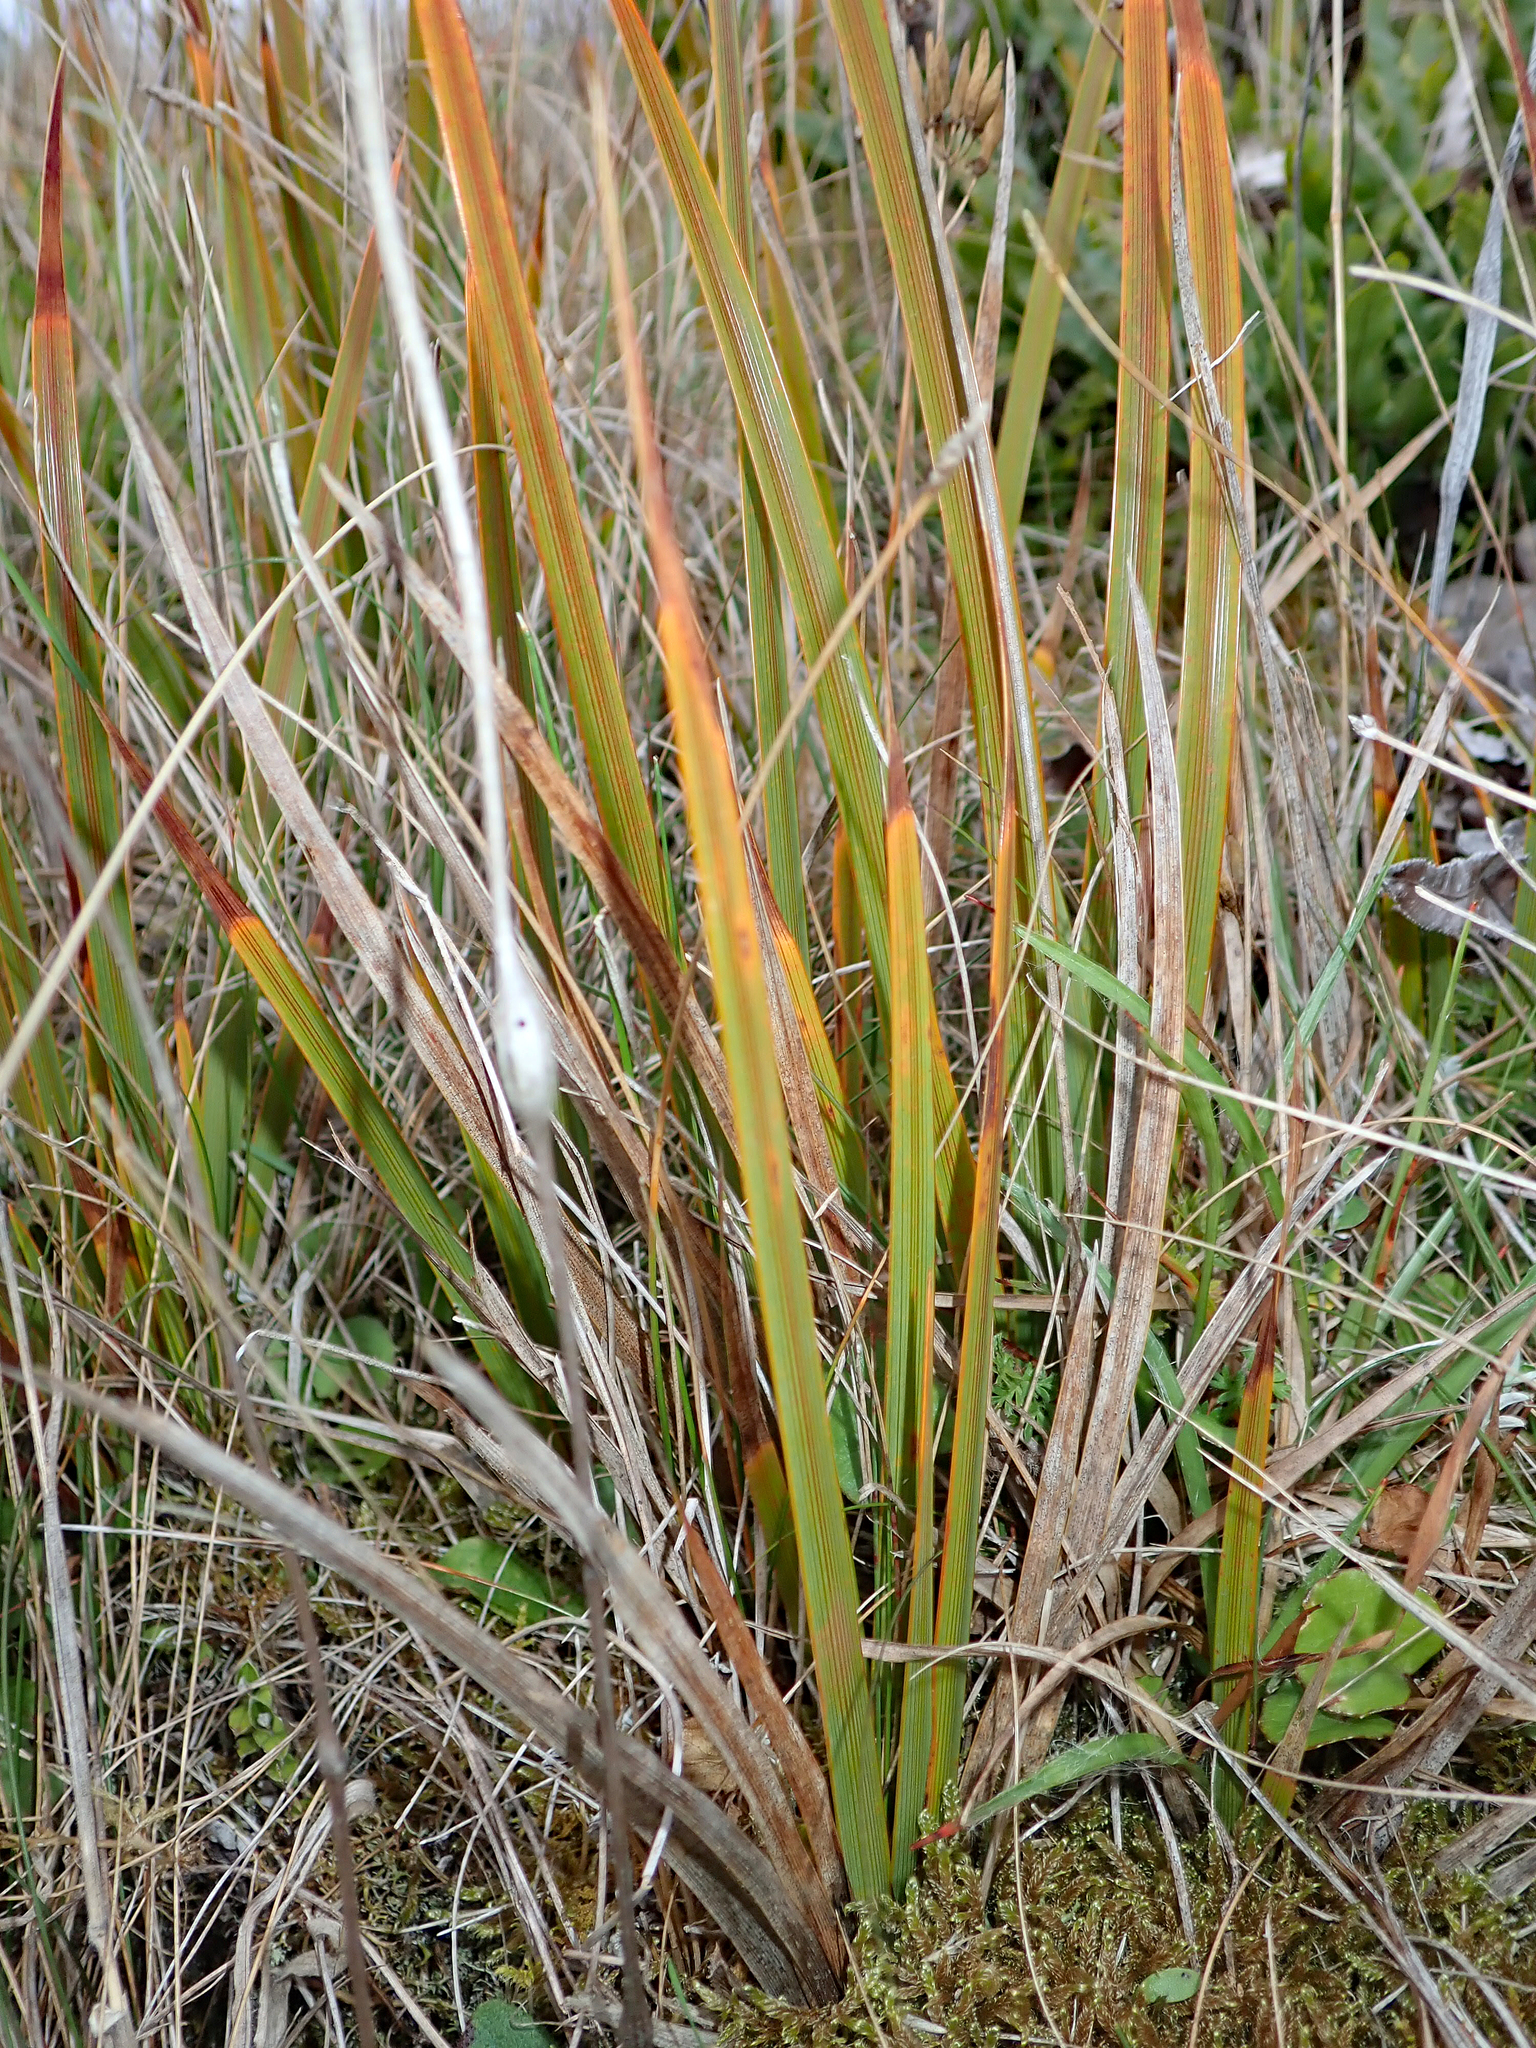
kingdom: Plantae
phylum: Tracheophyta
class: Liliopsida
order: Asparagales
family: Iridaceae
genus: Libertia
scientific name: Libertia peregrinans
